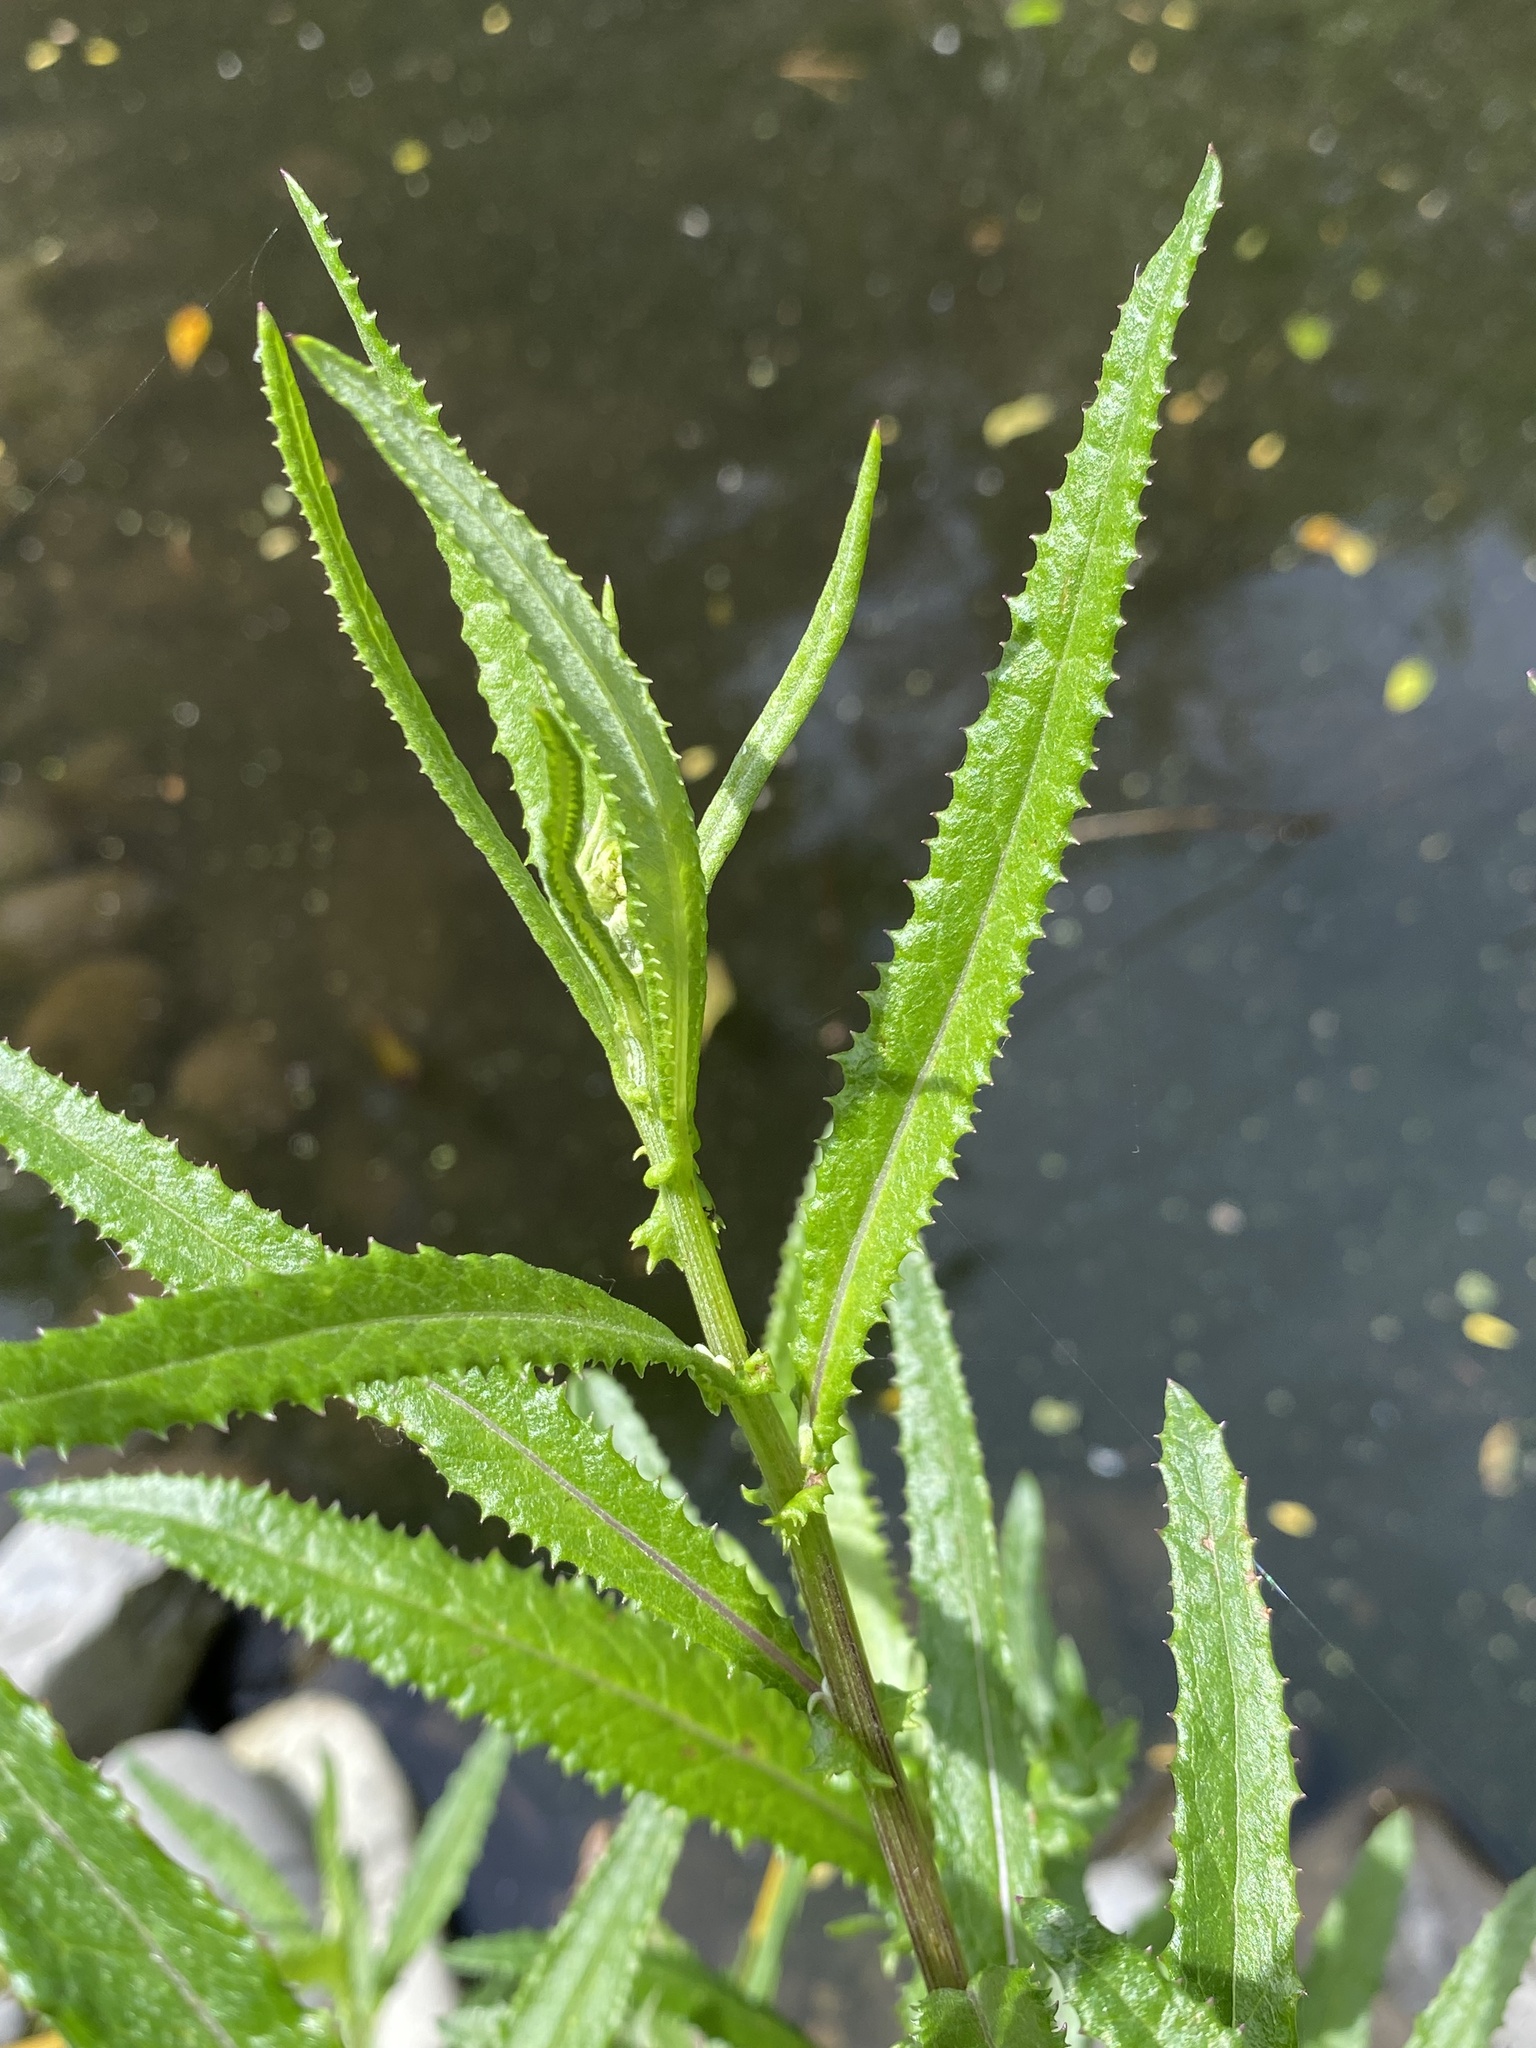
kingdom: Plantae
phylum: Tracheophyta
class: Magnoliopsida
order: Asterales
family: Asteraceae
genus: Senecio
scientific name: Senecio minimus
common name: Toothed fireweed
